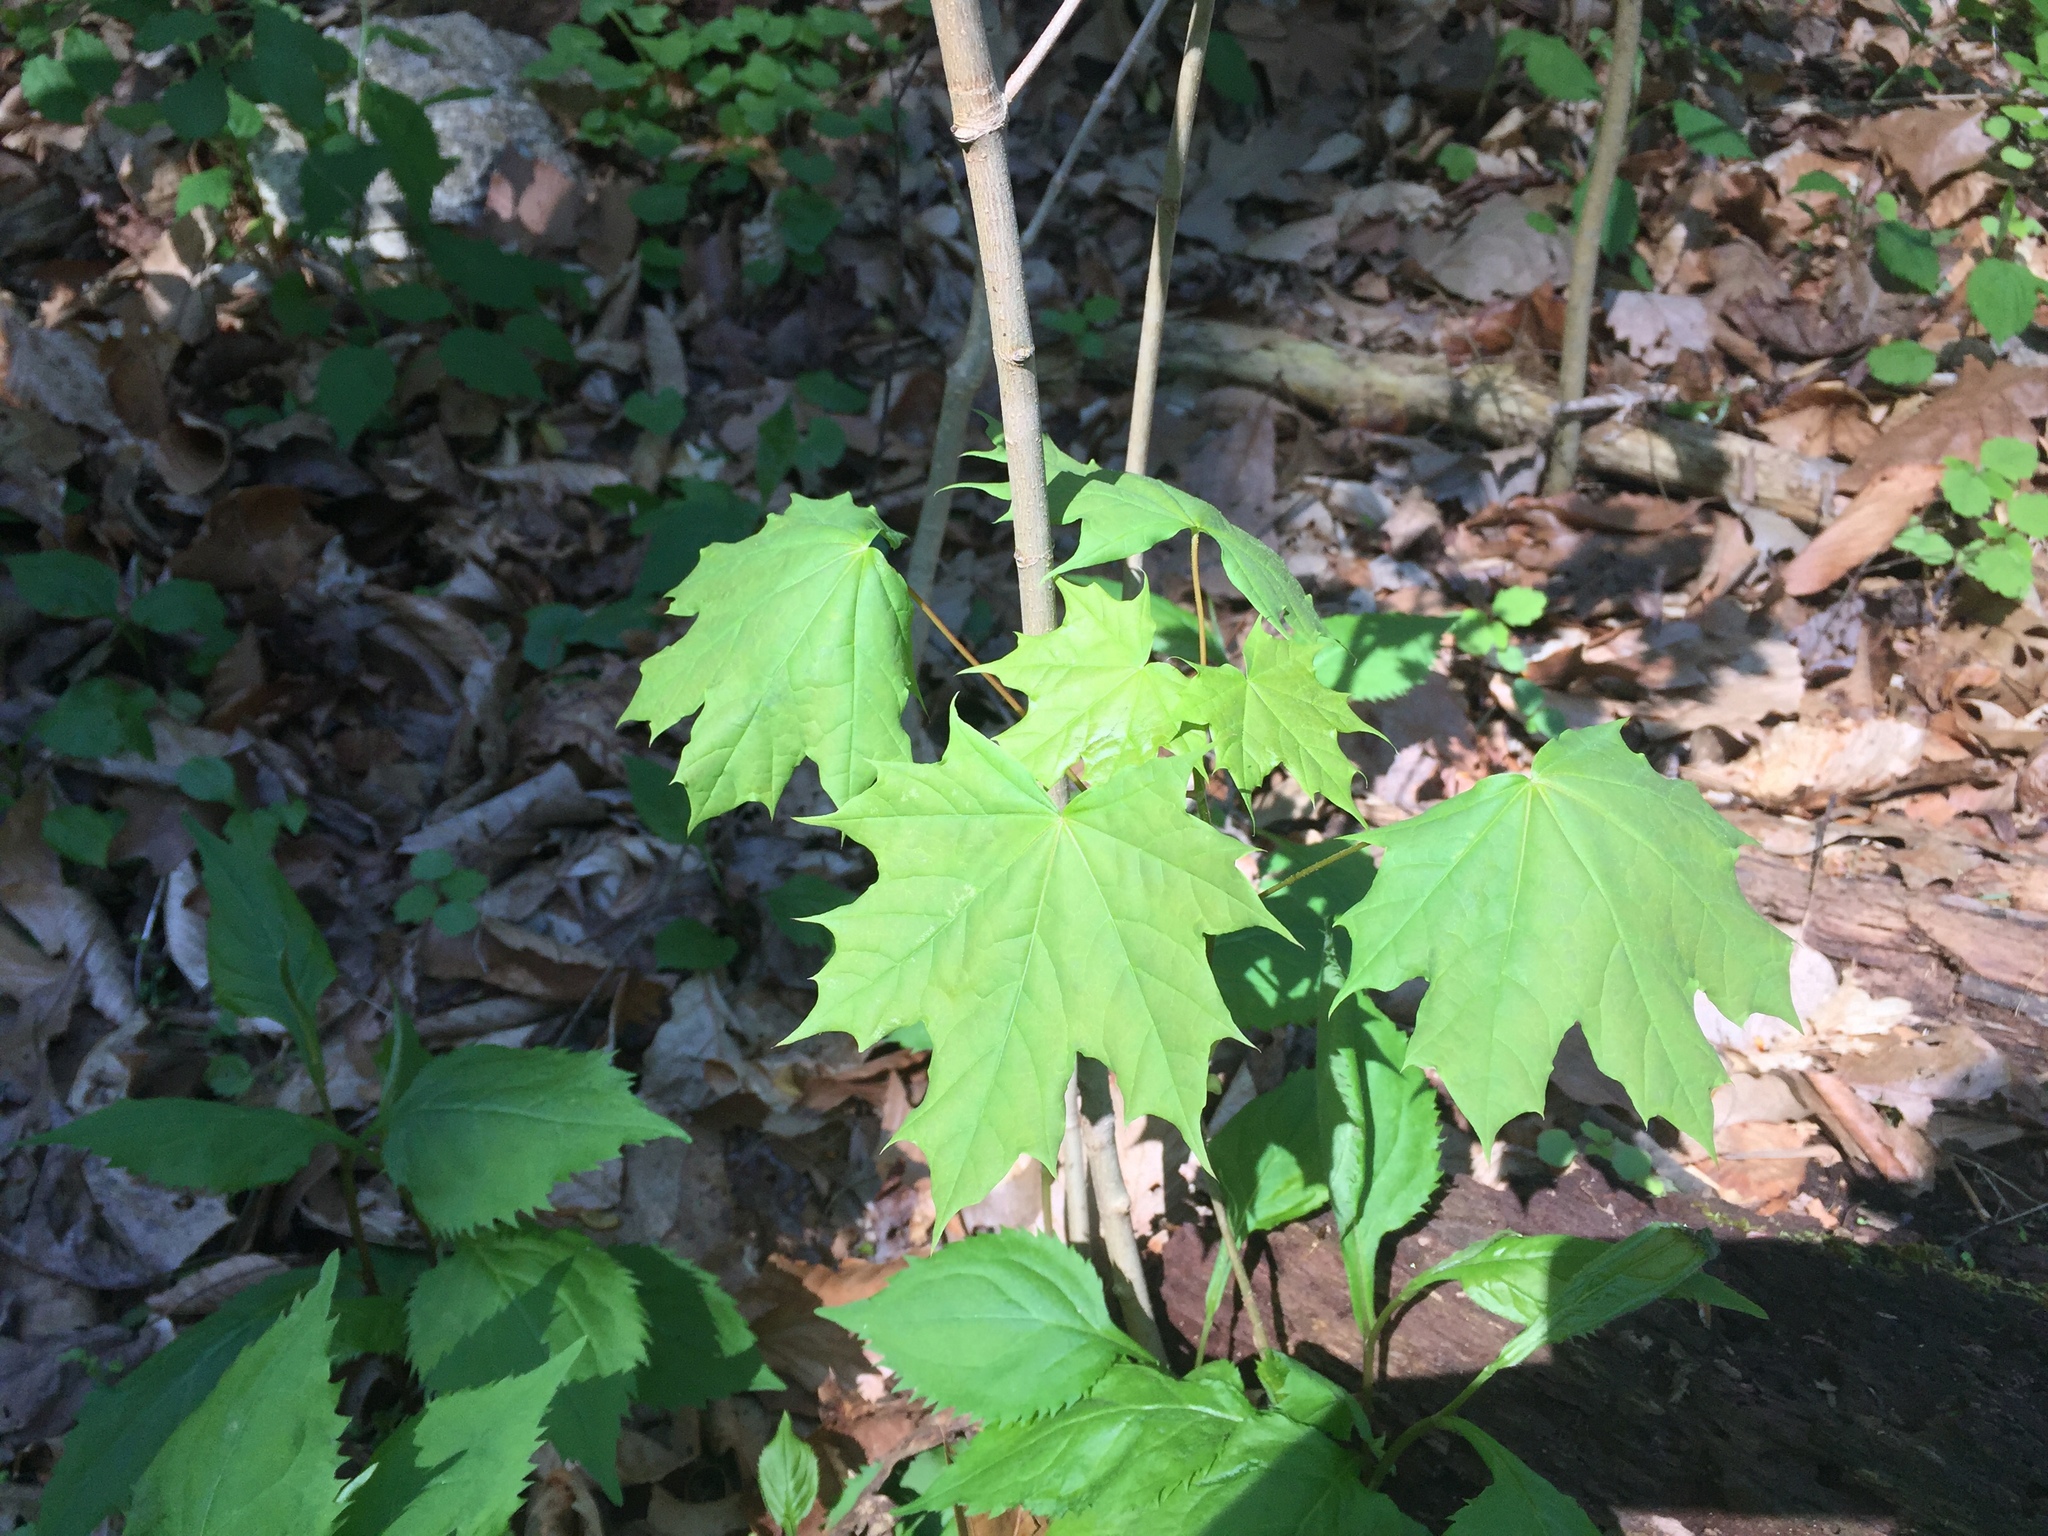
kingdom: Plantae
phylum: Tracheophyta
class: Magnoliopsida
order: Sapindales
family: Sapindaceae
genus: Acer
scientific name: Acer platanoides
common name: Norway maple
